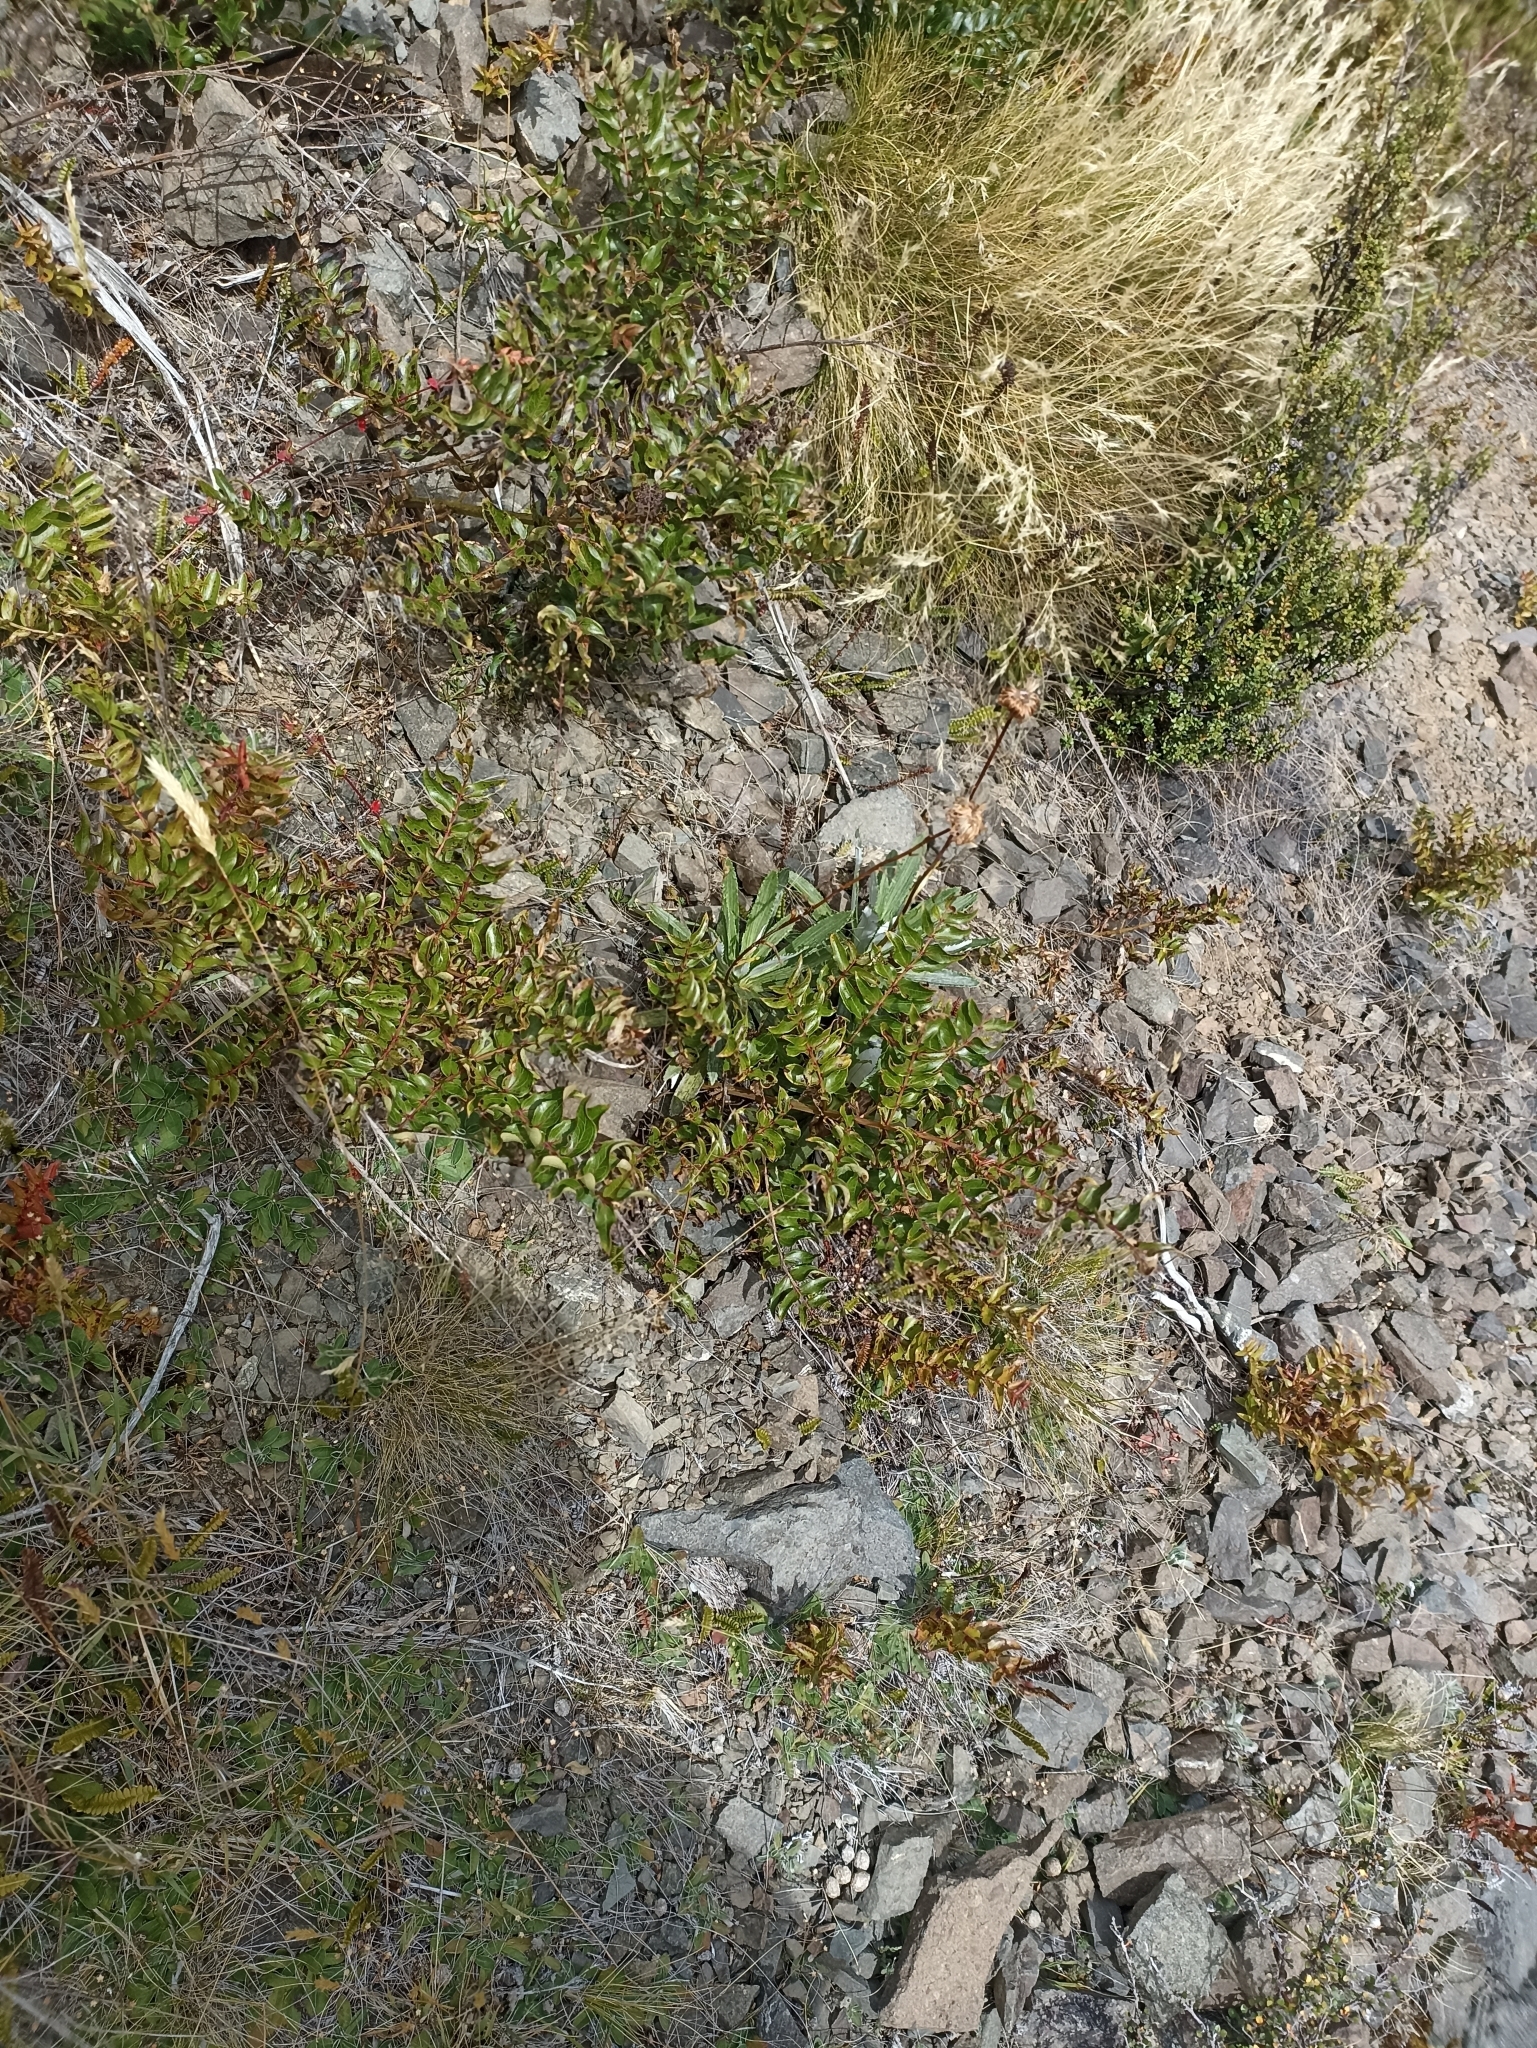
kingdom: Plantae
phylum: Tracheophyta
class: Magnoliopsida
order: Cucurbitales
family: Coriariaceae
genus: Coriaria
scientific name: Coriaria sarmentosa
